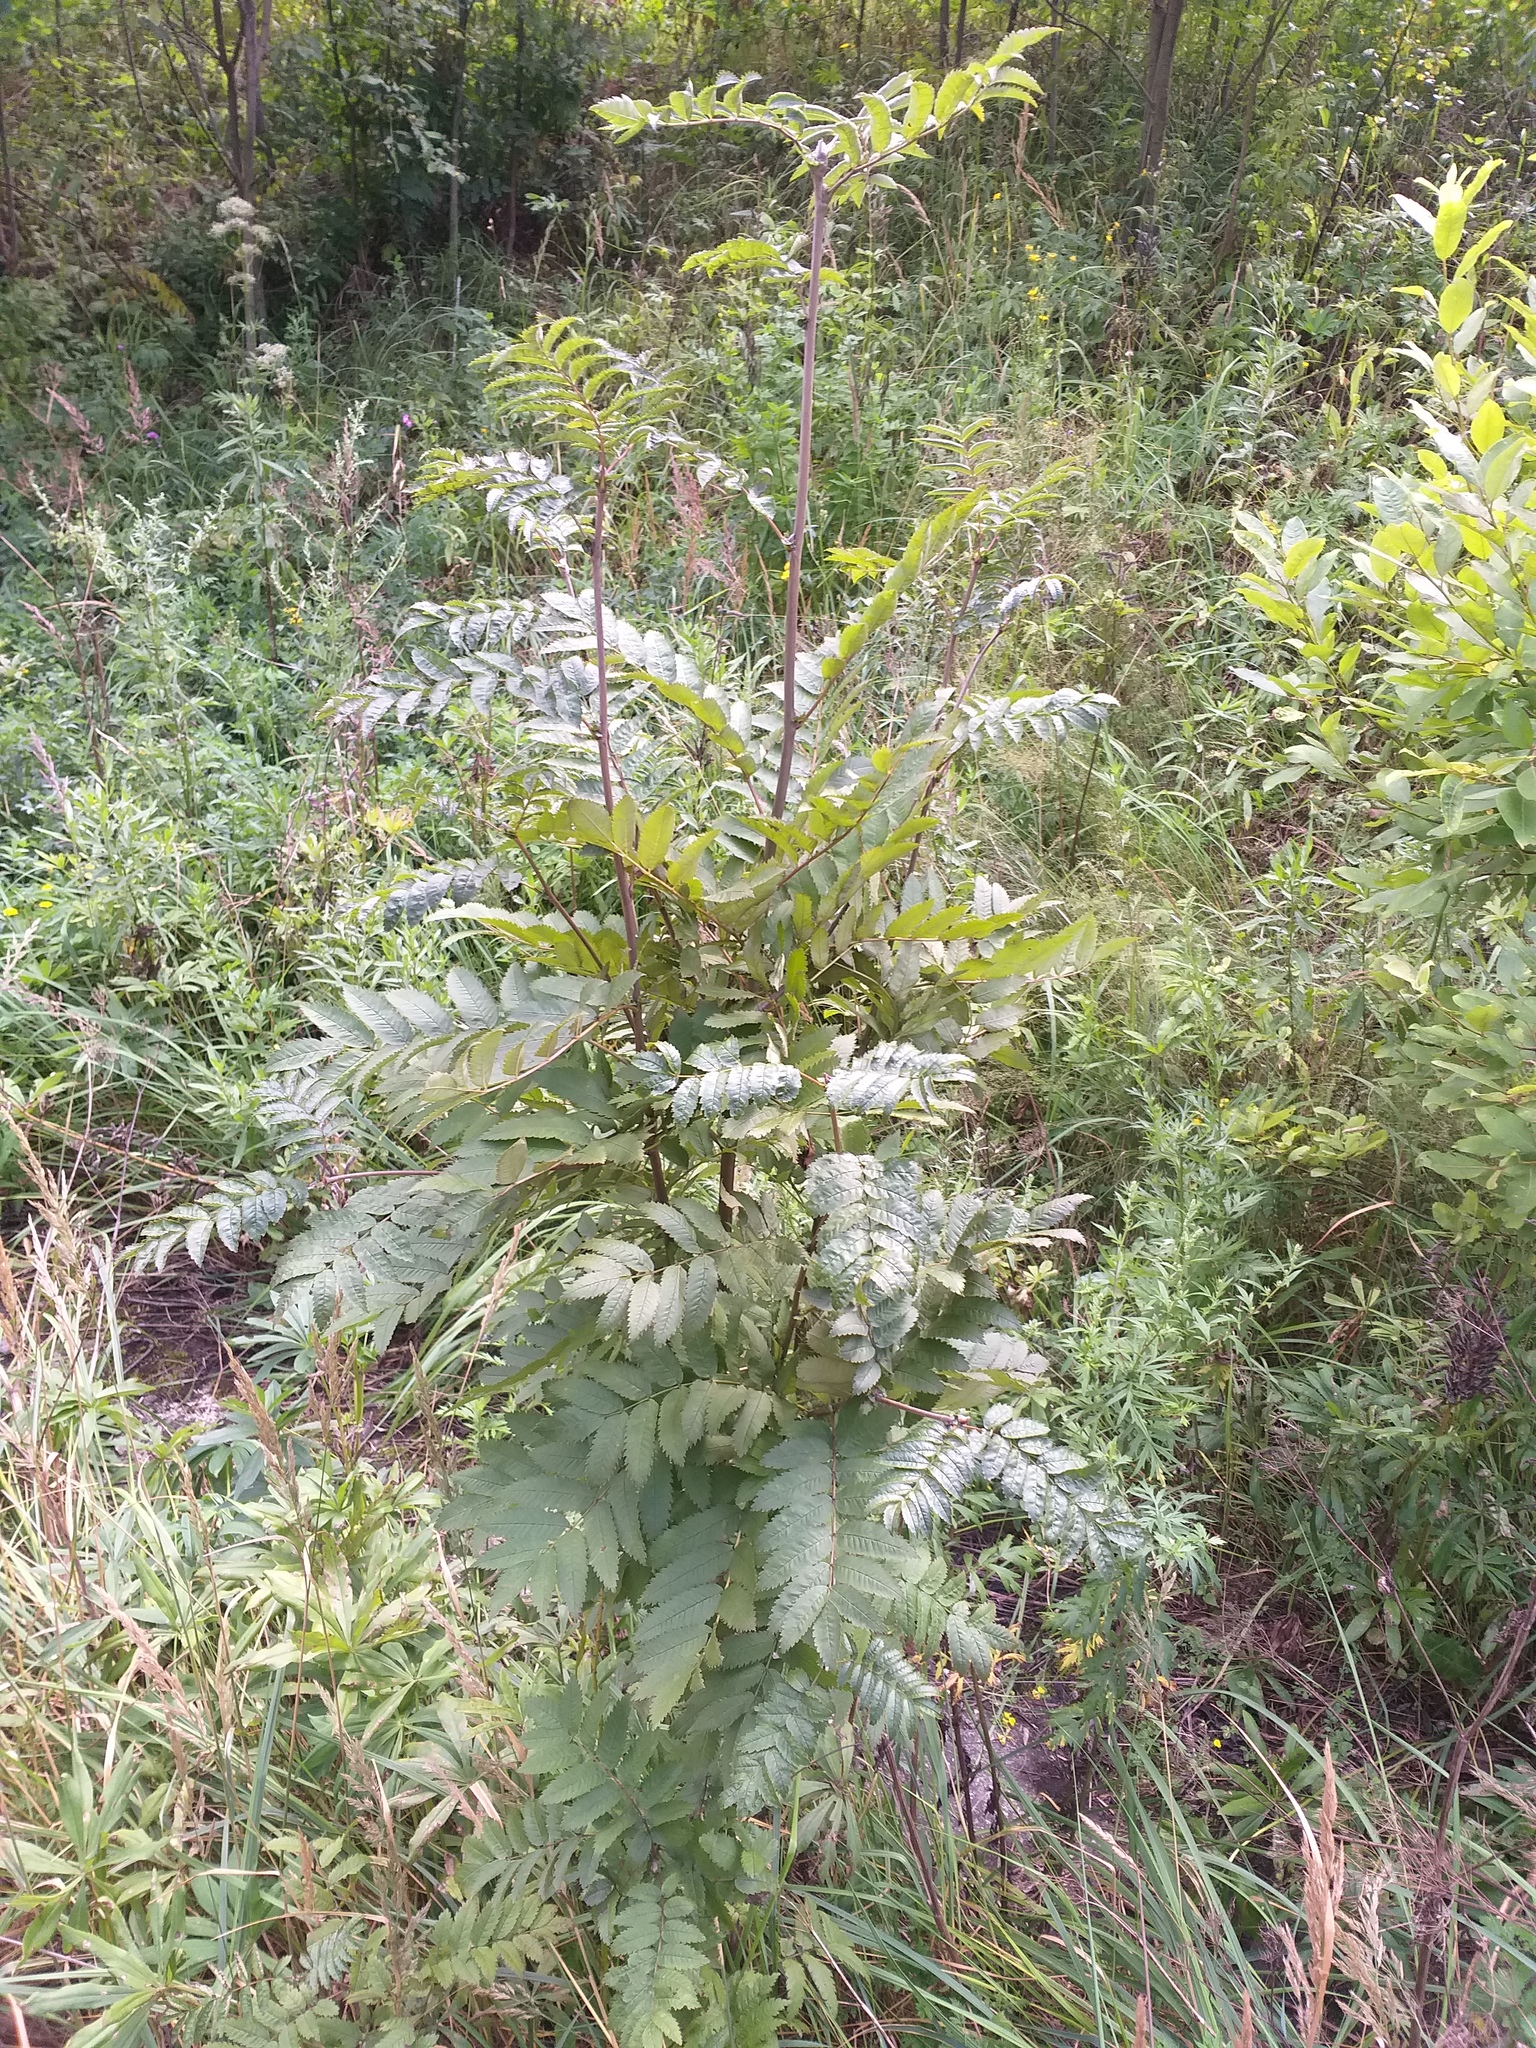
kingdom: Plantae
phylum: Tracheophyta
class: Magnoliopsida
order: Rosales
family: Rosaceae
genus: Sorbus
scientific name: Sorbus aucuparia
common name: Rowan
